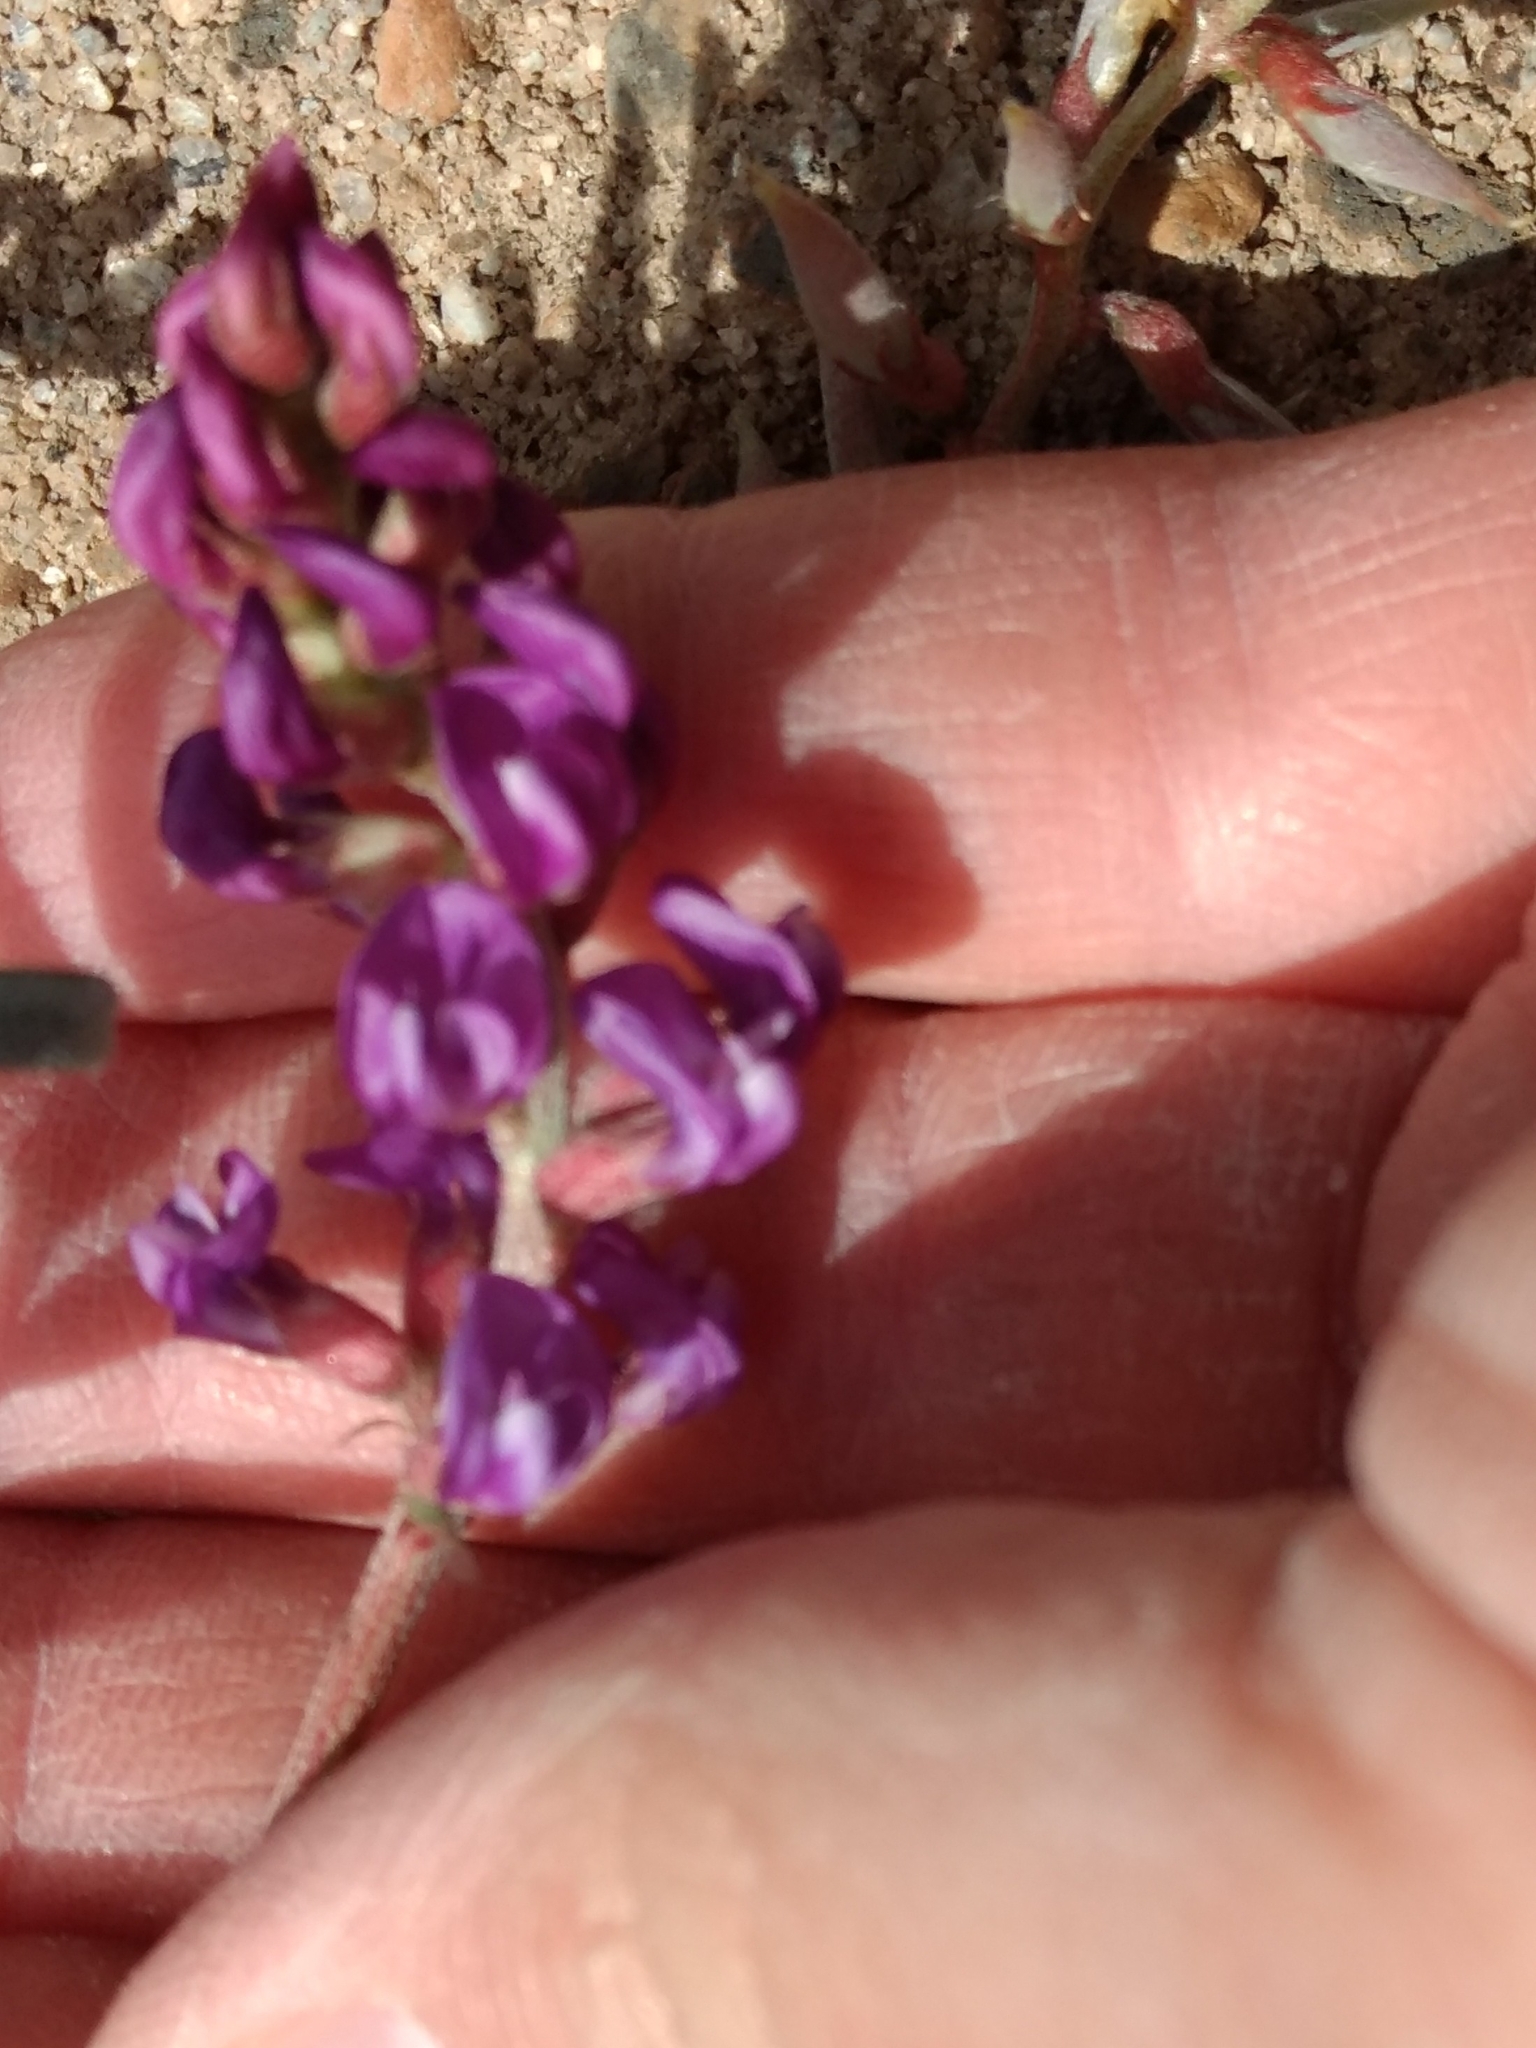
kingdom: Plantae
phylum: Tracheophyta
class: Magnoliopsida
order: Fabales
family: Fabaceae
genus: Astragalus
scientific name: Astragalus palmeri
